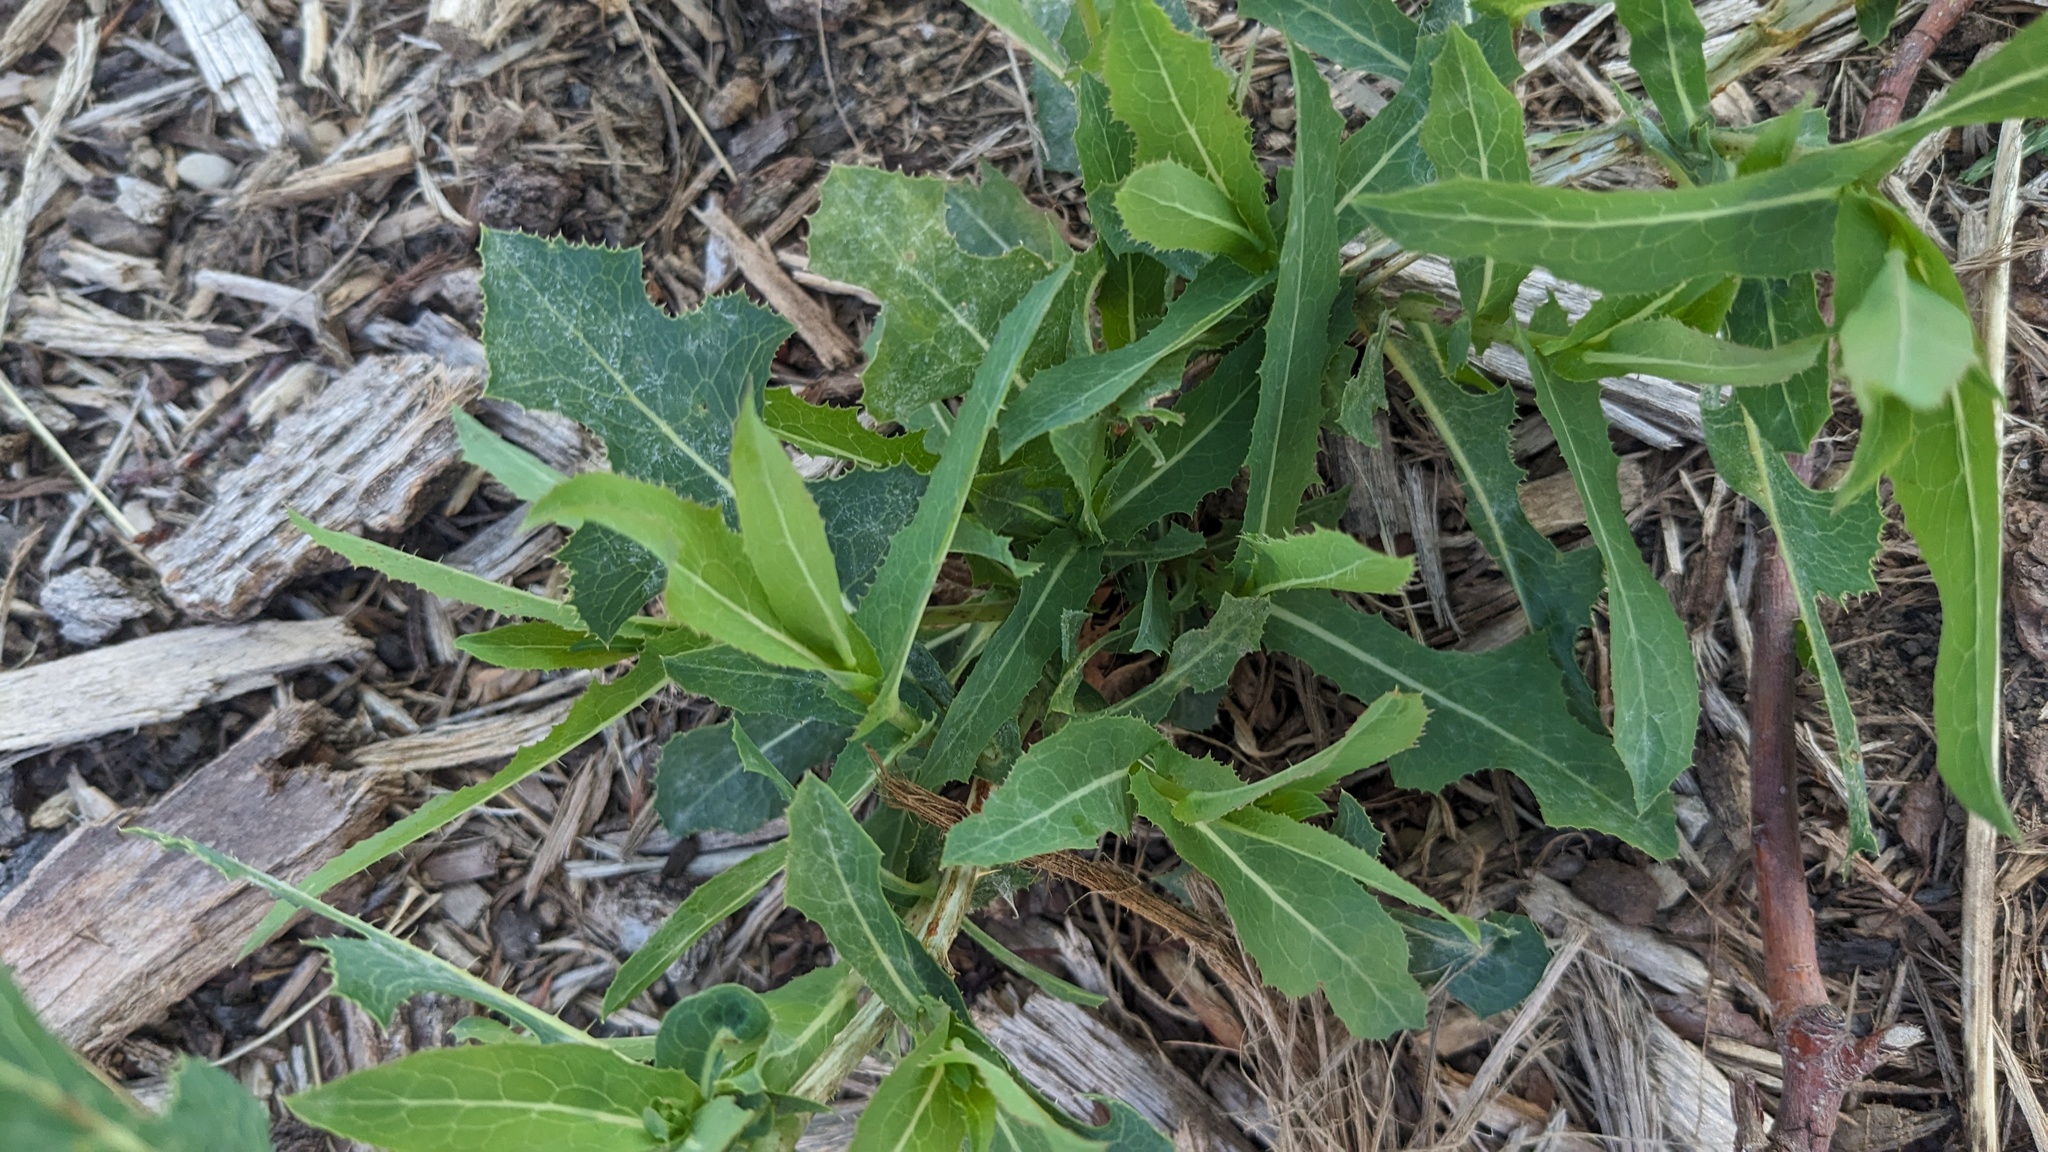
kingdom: Plantae
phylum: Tracheophyta
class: Magnoliopsida
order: Asterales
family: Asteraceae
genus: Lactuca
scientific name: Lactuca serriola
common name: Prickly lettuce
